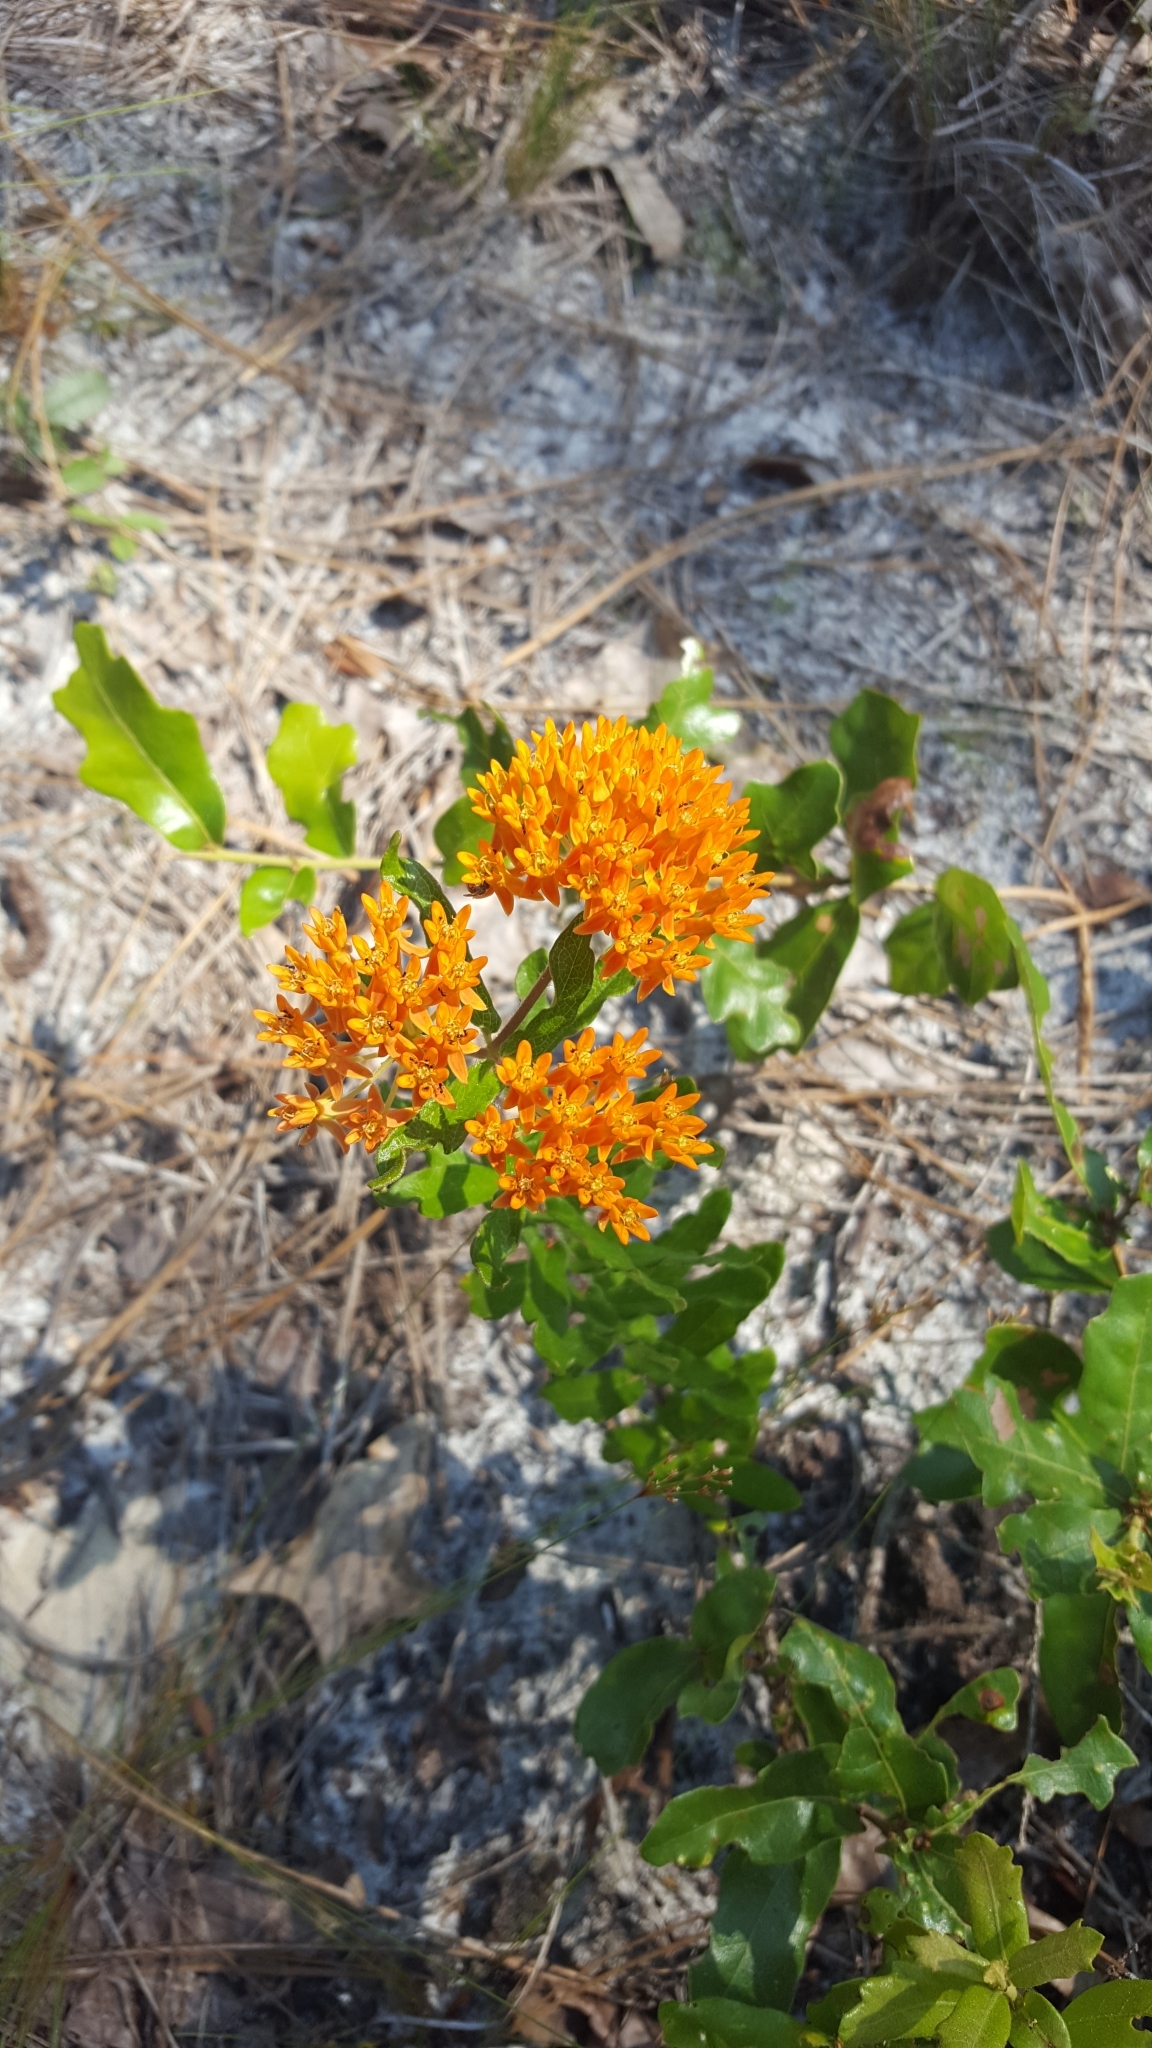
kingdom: Plantae
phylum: Tracheophyta
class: Magnoliopsida
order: Gentianales
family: Apocynaceae
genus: Asclepias
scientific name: Asclepias tuberosa
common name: Butterfly milkweed
